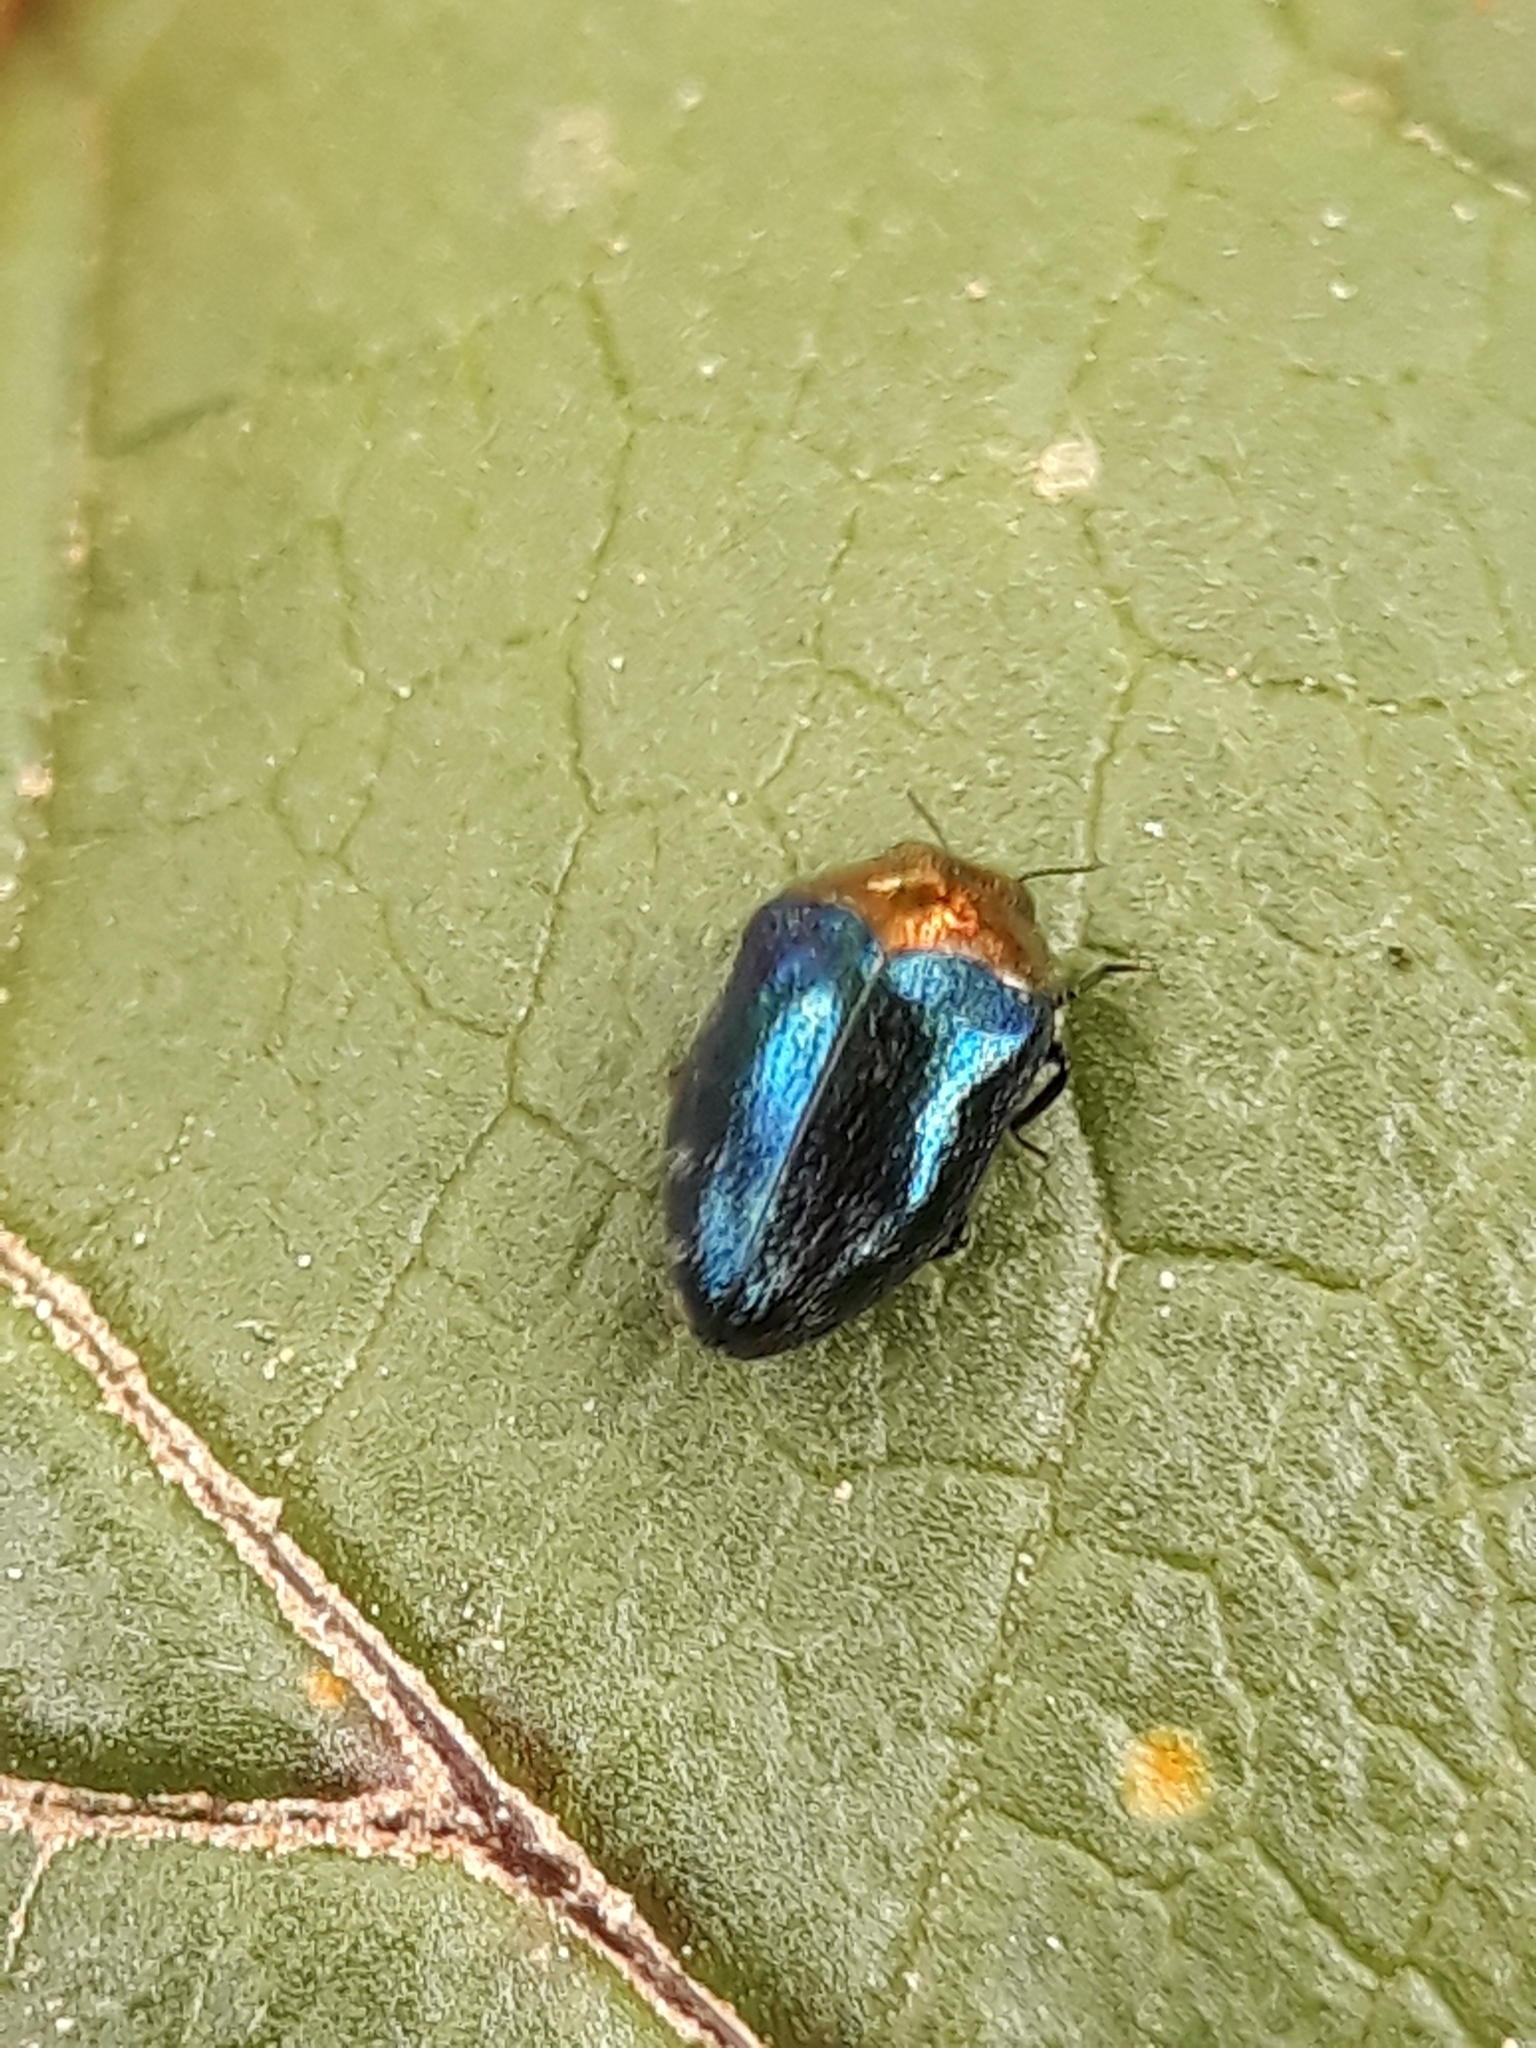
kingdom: Animalia
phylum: Arthropoda
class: Insecta
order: Coleoptera
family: Buprestidae
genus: Trachys
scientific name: Trachys troglodytiformis
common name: Metallic wood-boring beetle
